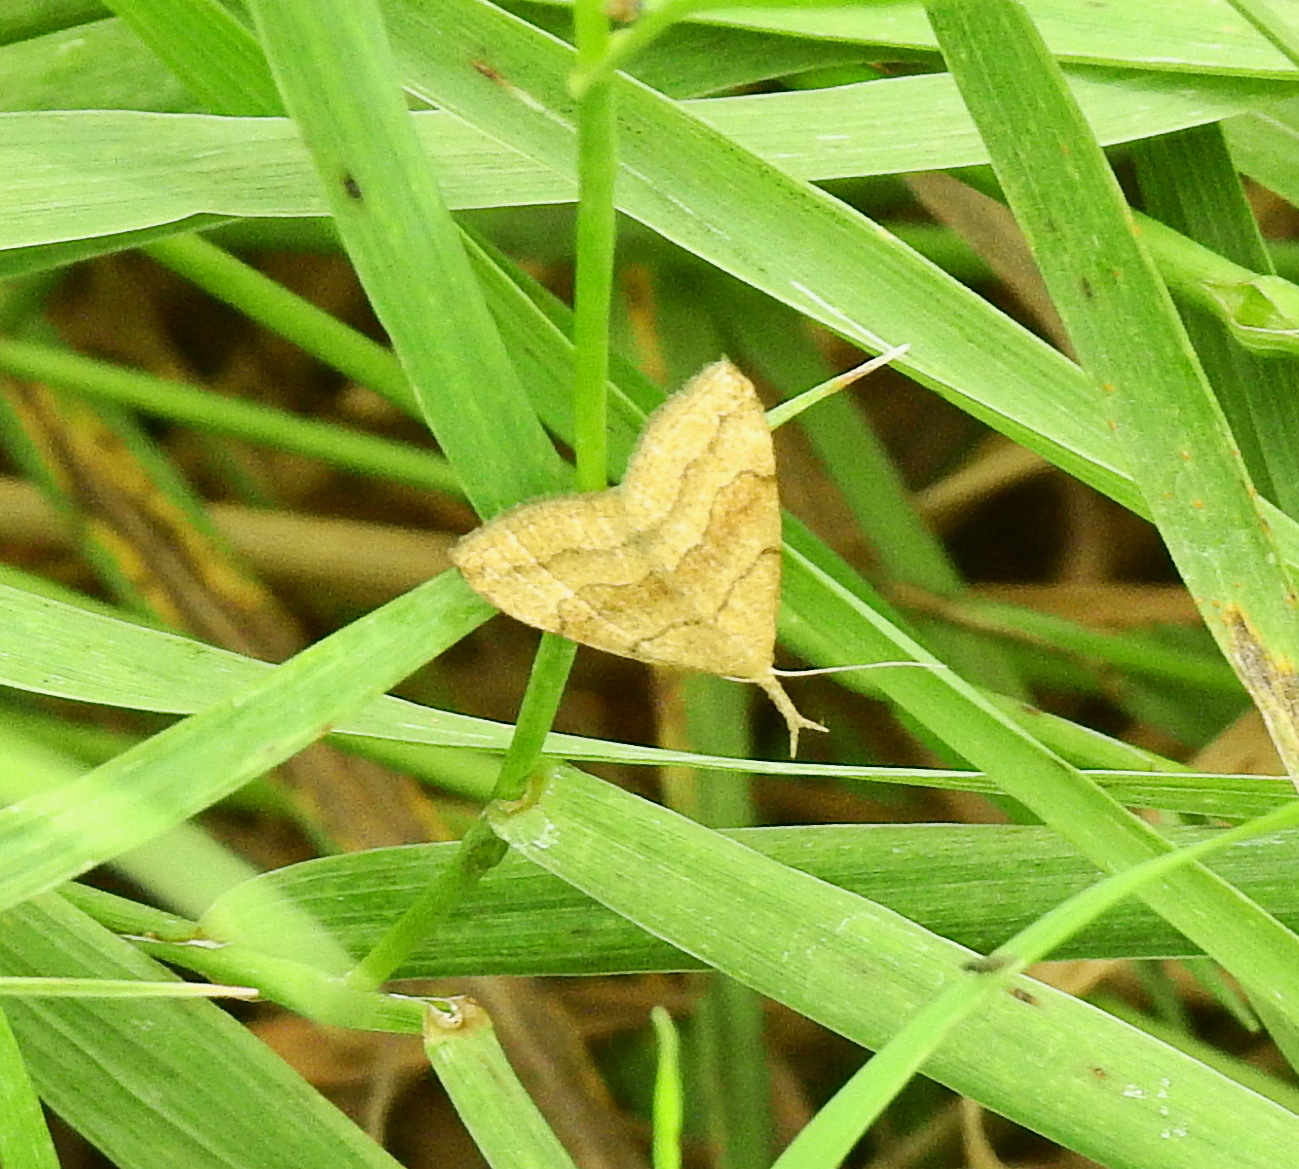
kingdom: Animalia
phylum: Arthropoda
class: Insecta
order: Lepidoptera
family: Erebidae
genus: Phalaenostola
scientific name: Phalaenostola metonalis
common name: Pale phalaenostola moth
